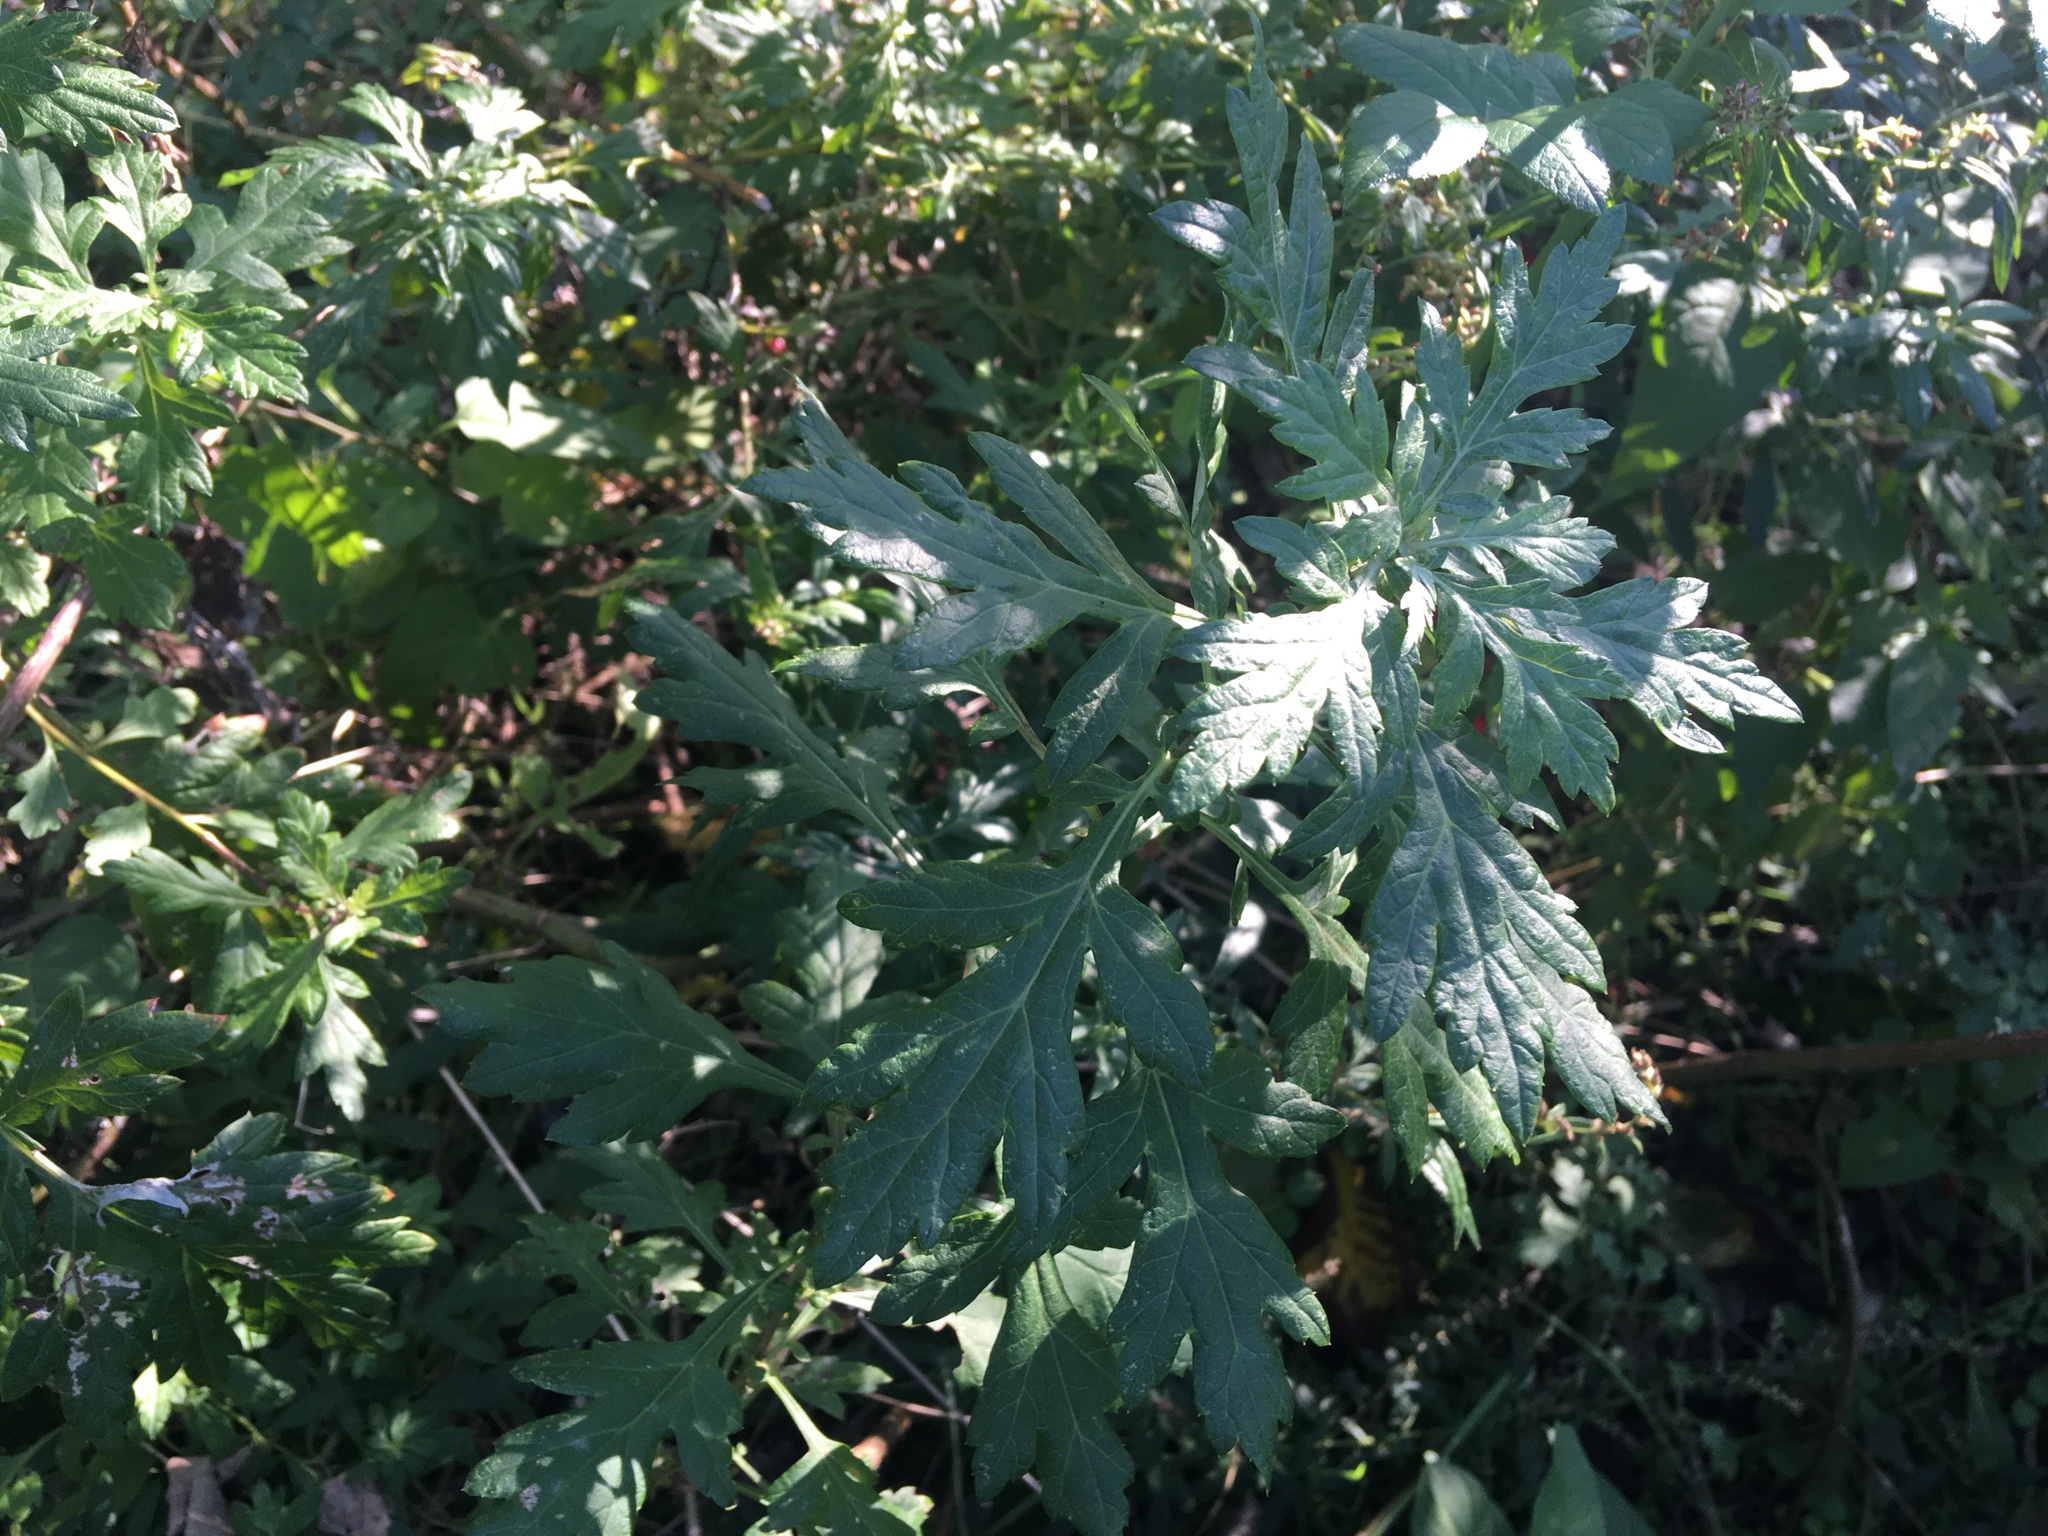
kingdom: Plantae
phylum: Tracheophyta
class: Magnoliopsida
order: Asterales
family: Asteraceae
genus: Artemisia
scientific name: Artemisia vulgaris
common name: Mugwort
